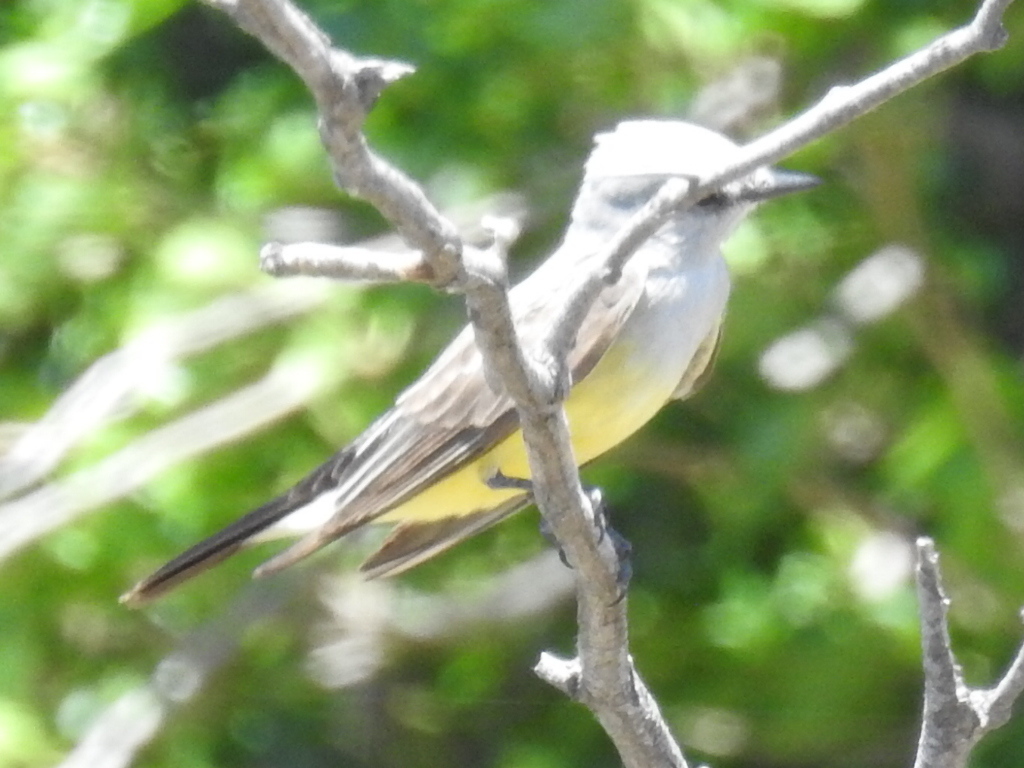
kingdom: Animalia
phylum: Chordata
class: Aves
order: Passeriformes
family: Tyrannidae
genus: Tyrannus
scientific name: Tyrannus verticalis
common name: Western kingbird
